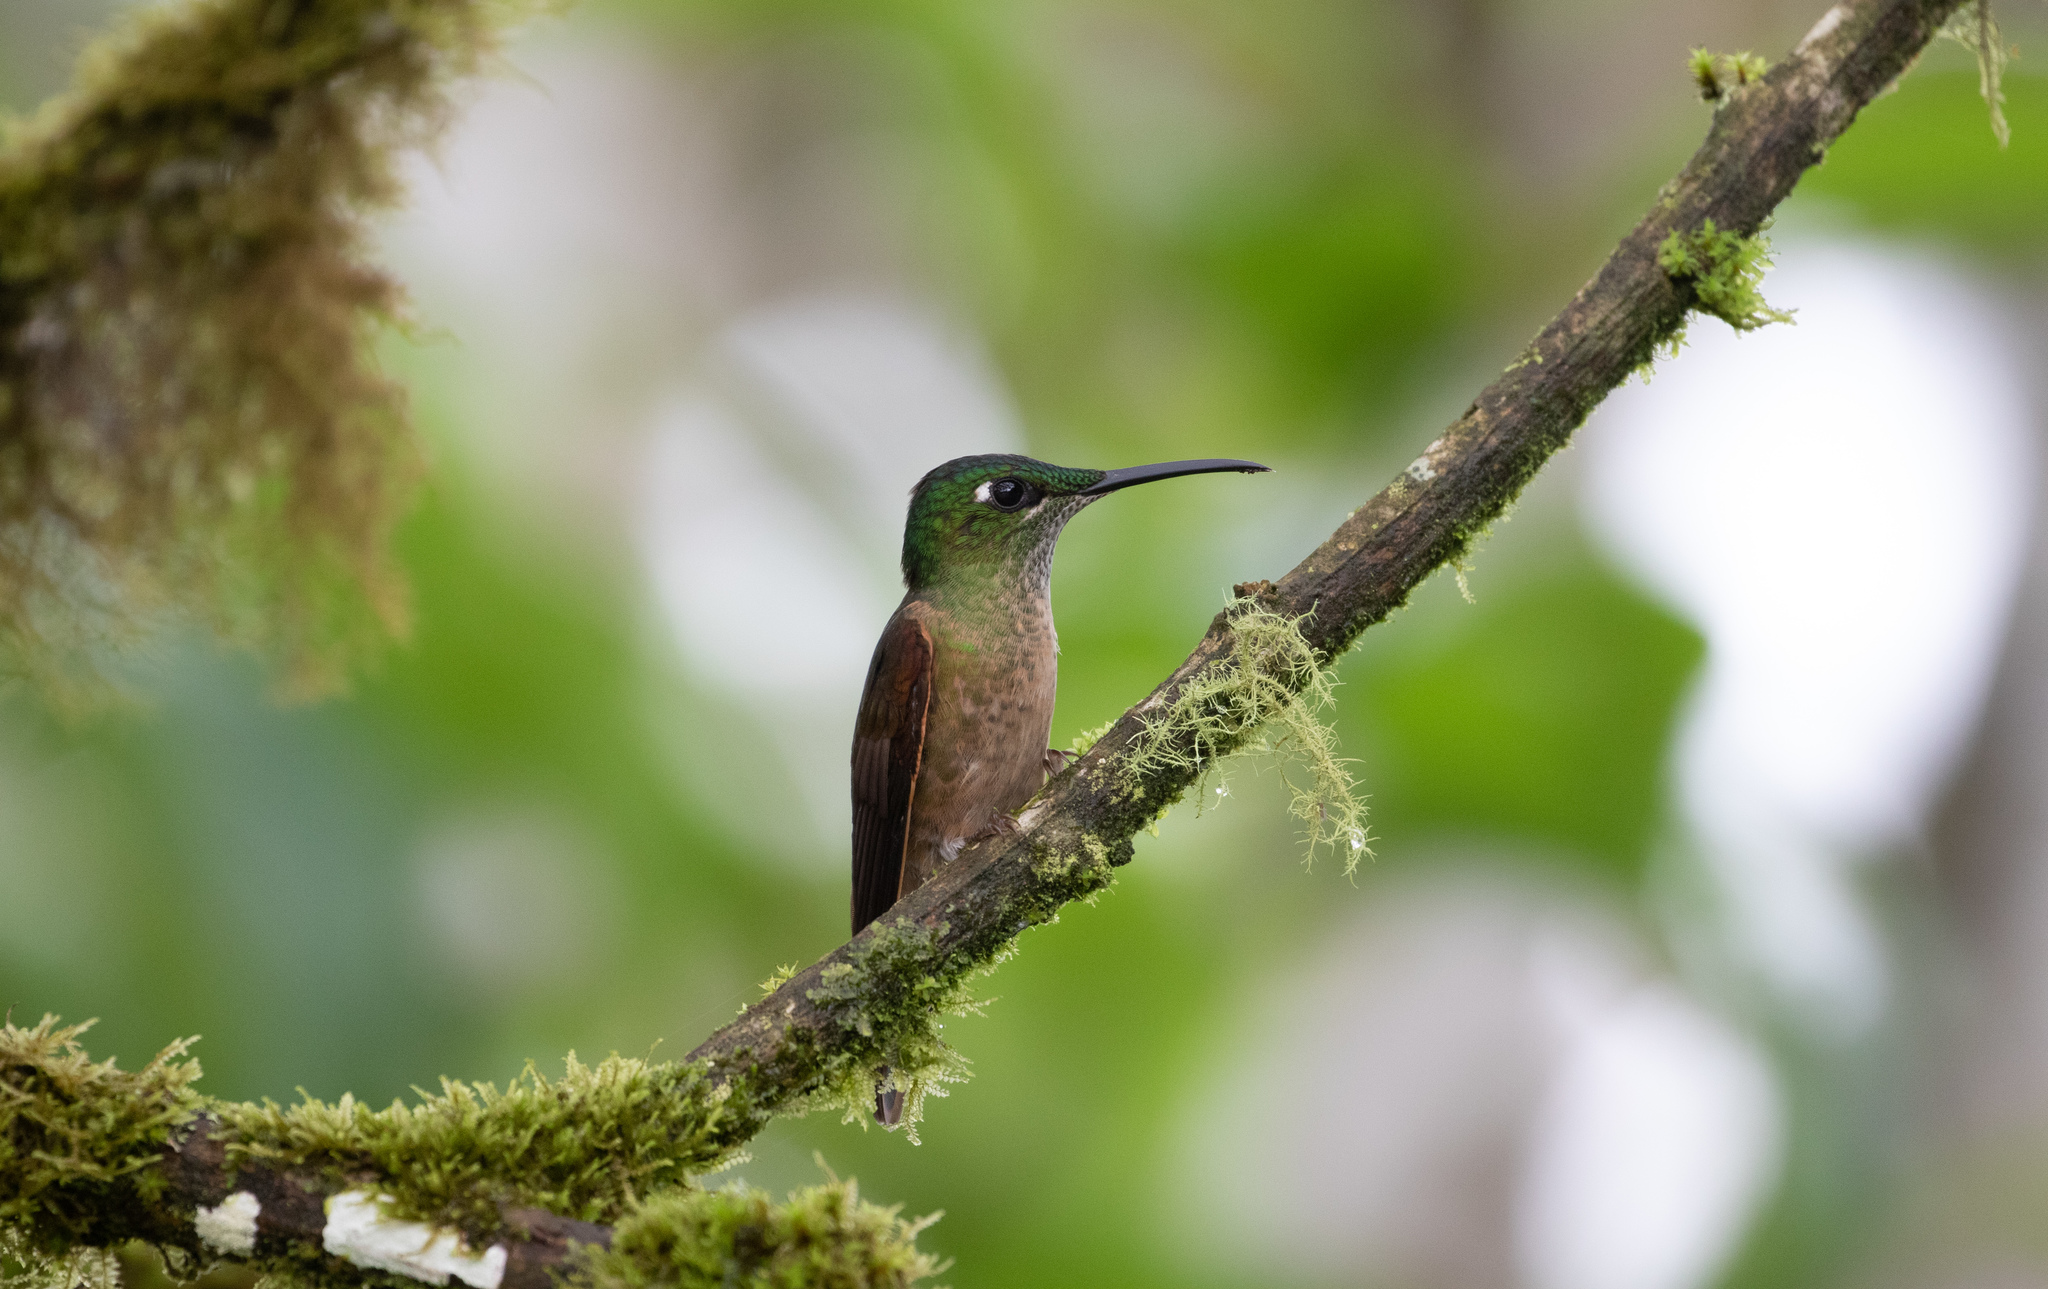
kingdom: Animalia
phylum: Chordata
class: Aves
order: Apodiformes
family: Trochilidae
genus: Heliodoxa
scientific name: Heliodoxa rubinoides
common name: Fawn-breasted brilliant
